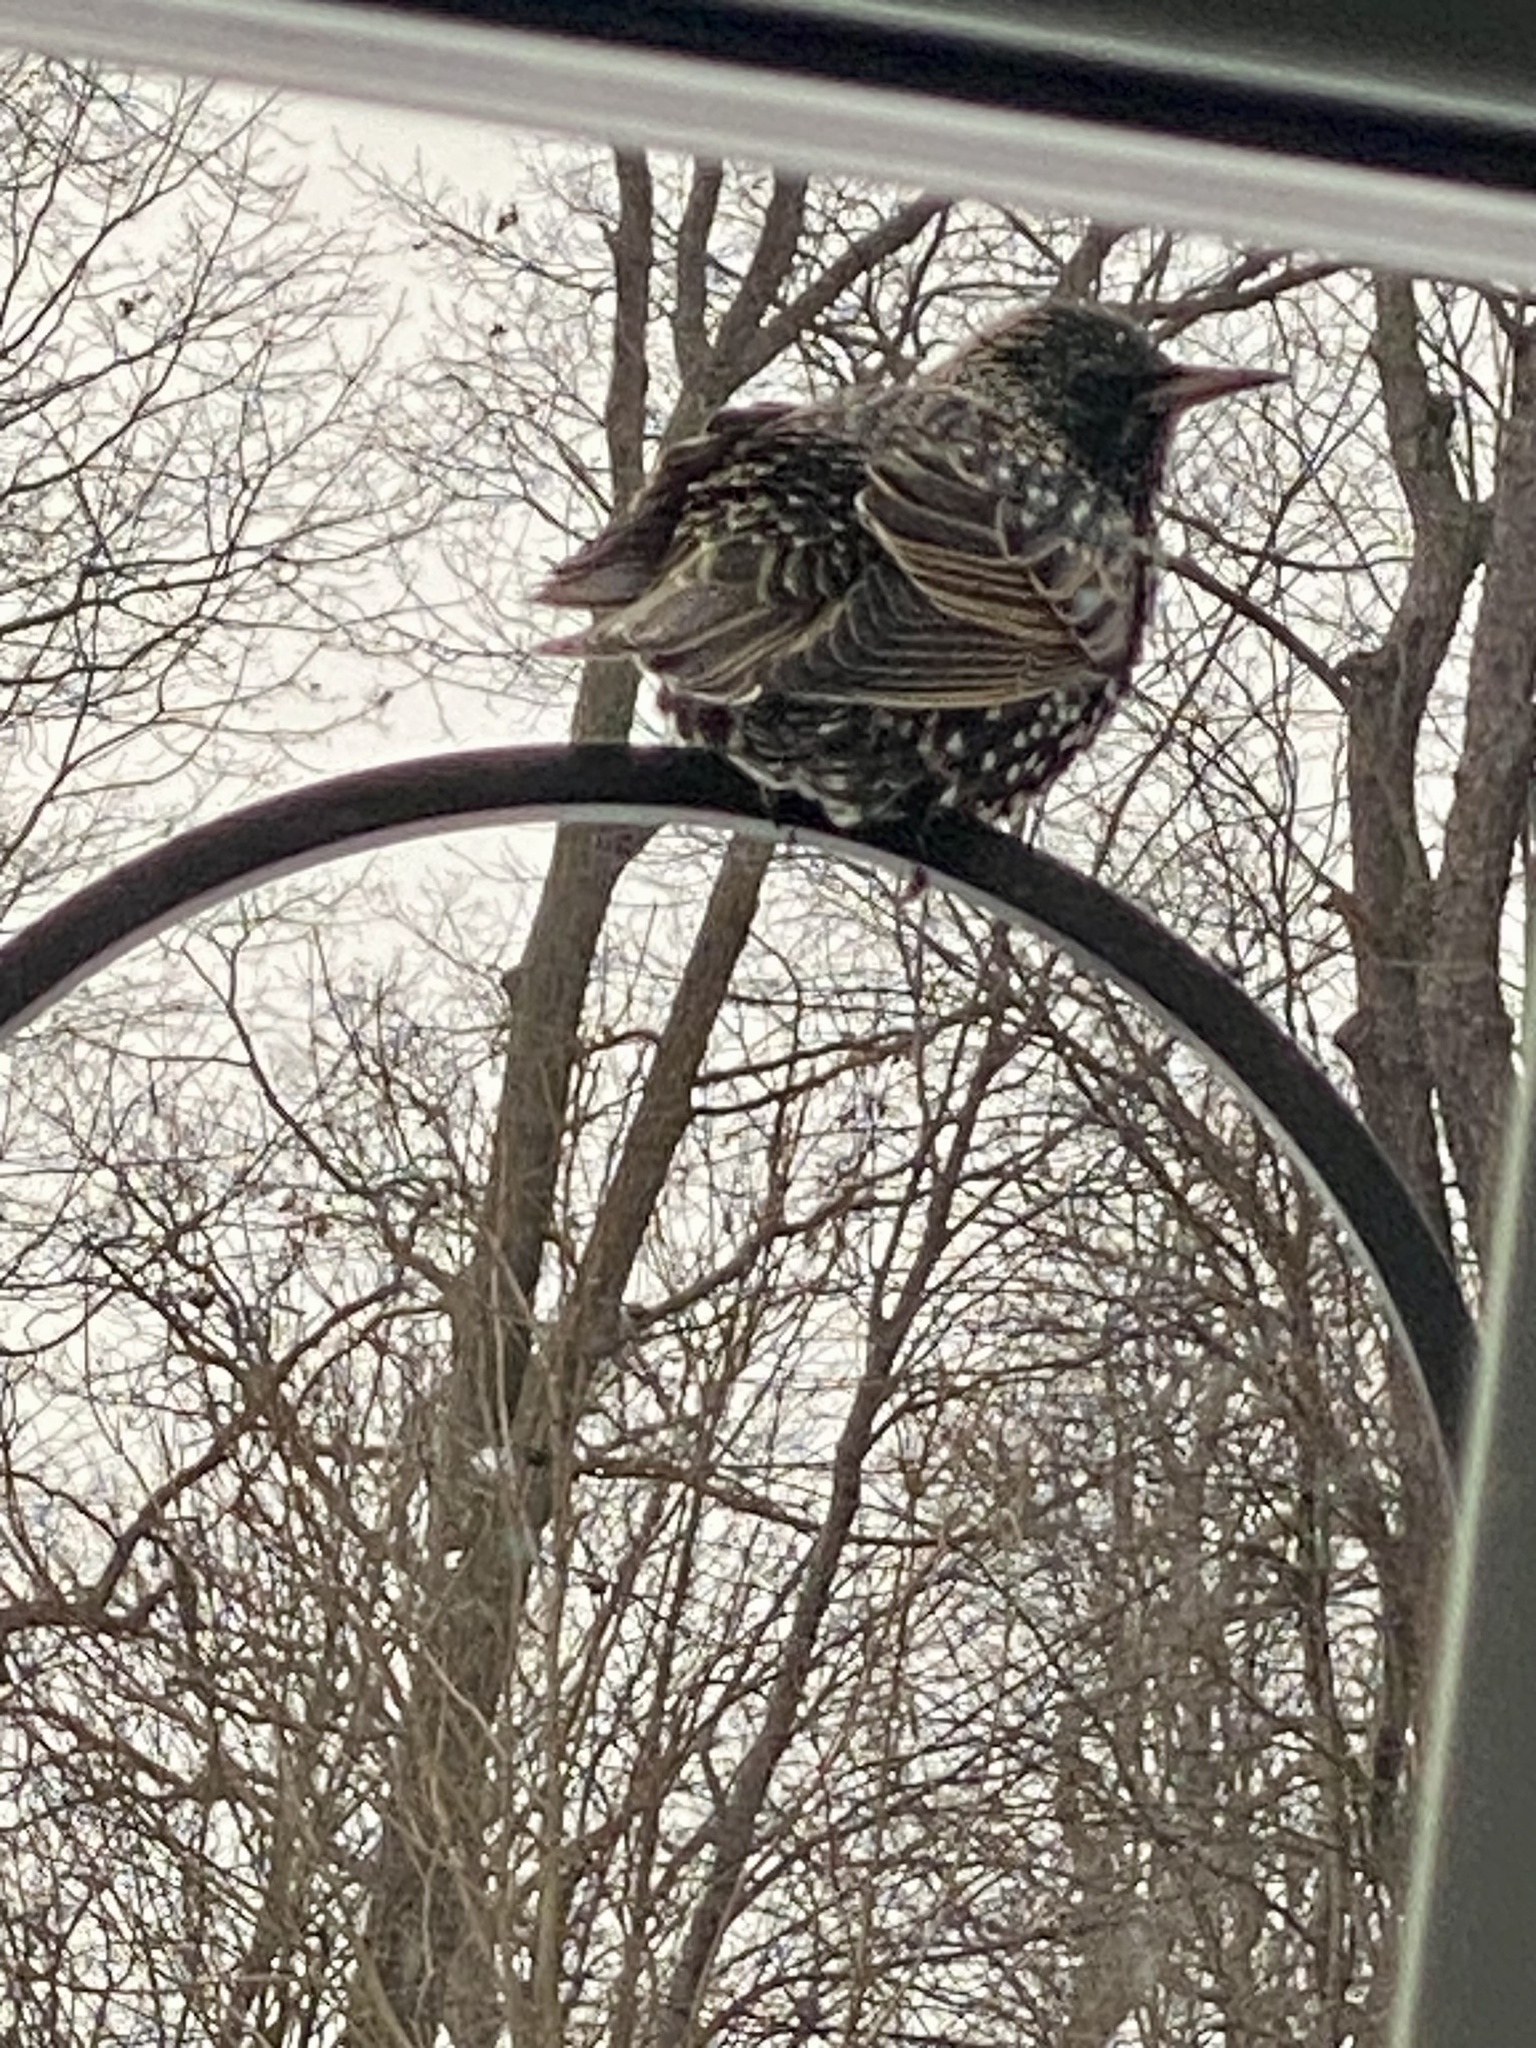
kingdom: Animalia
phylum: Chordata
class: Aves
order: Passeriformes
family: Sturnidae
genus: Sturnus
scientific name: Sturnus vulgaris
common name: Common starling
